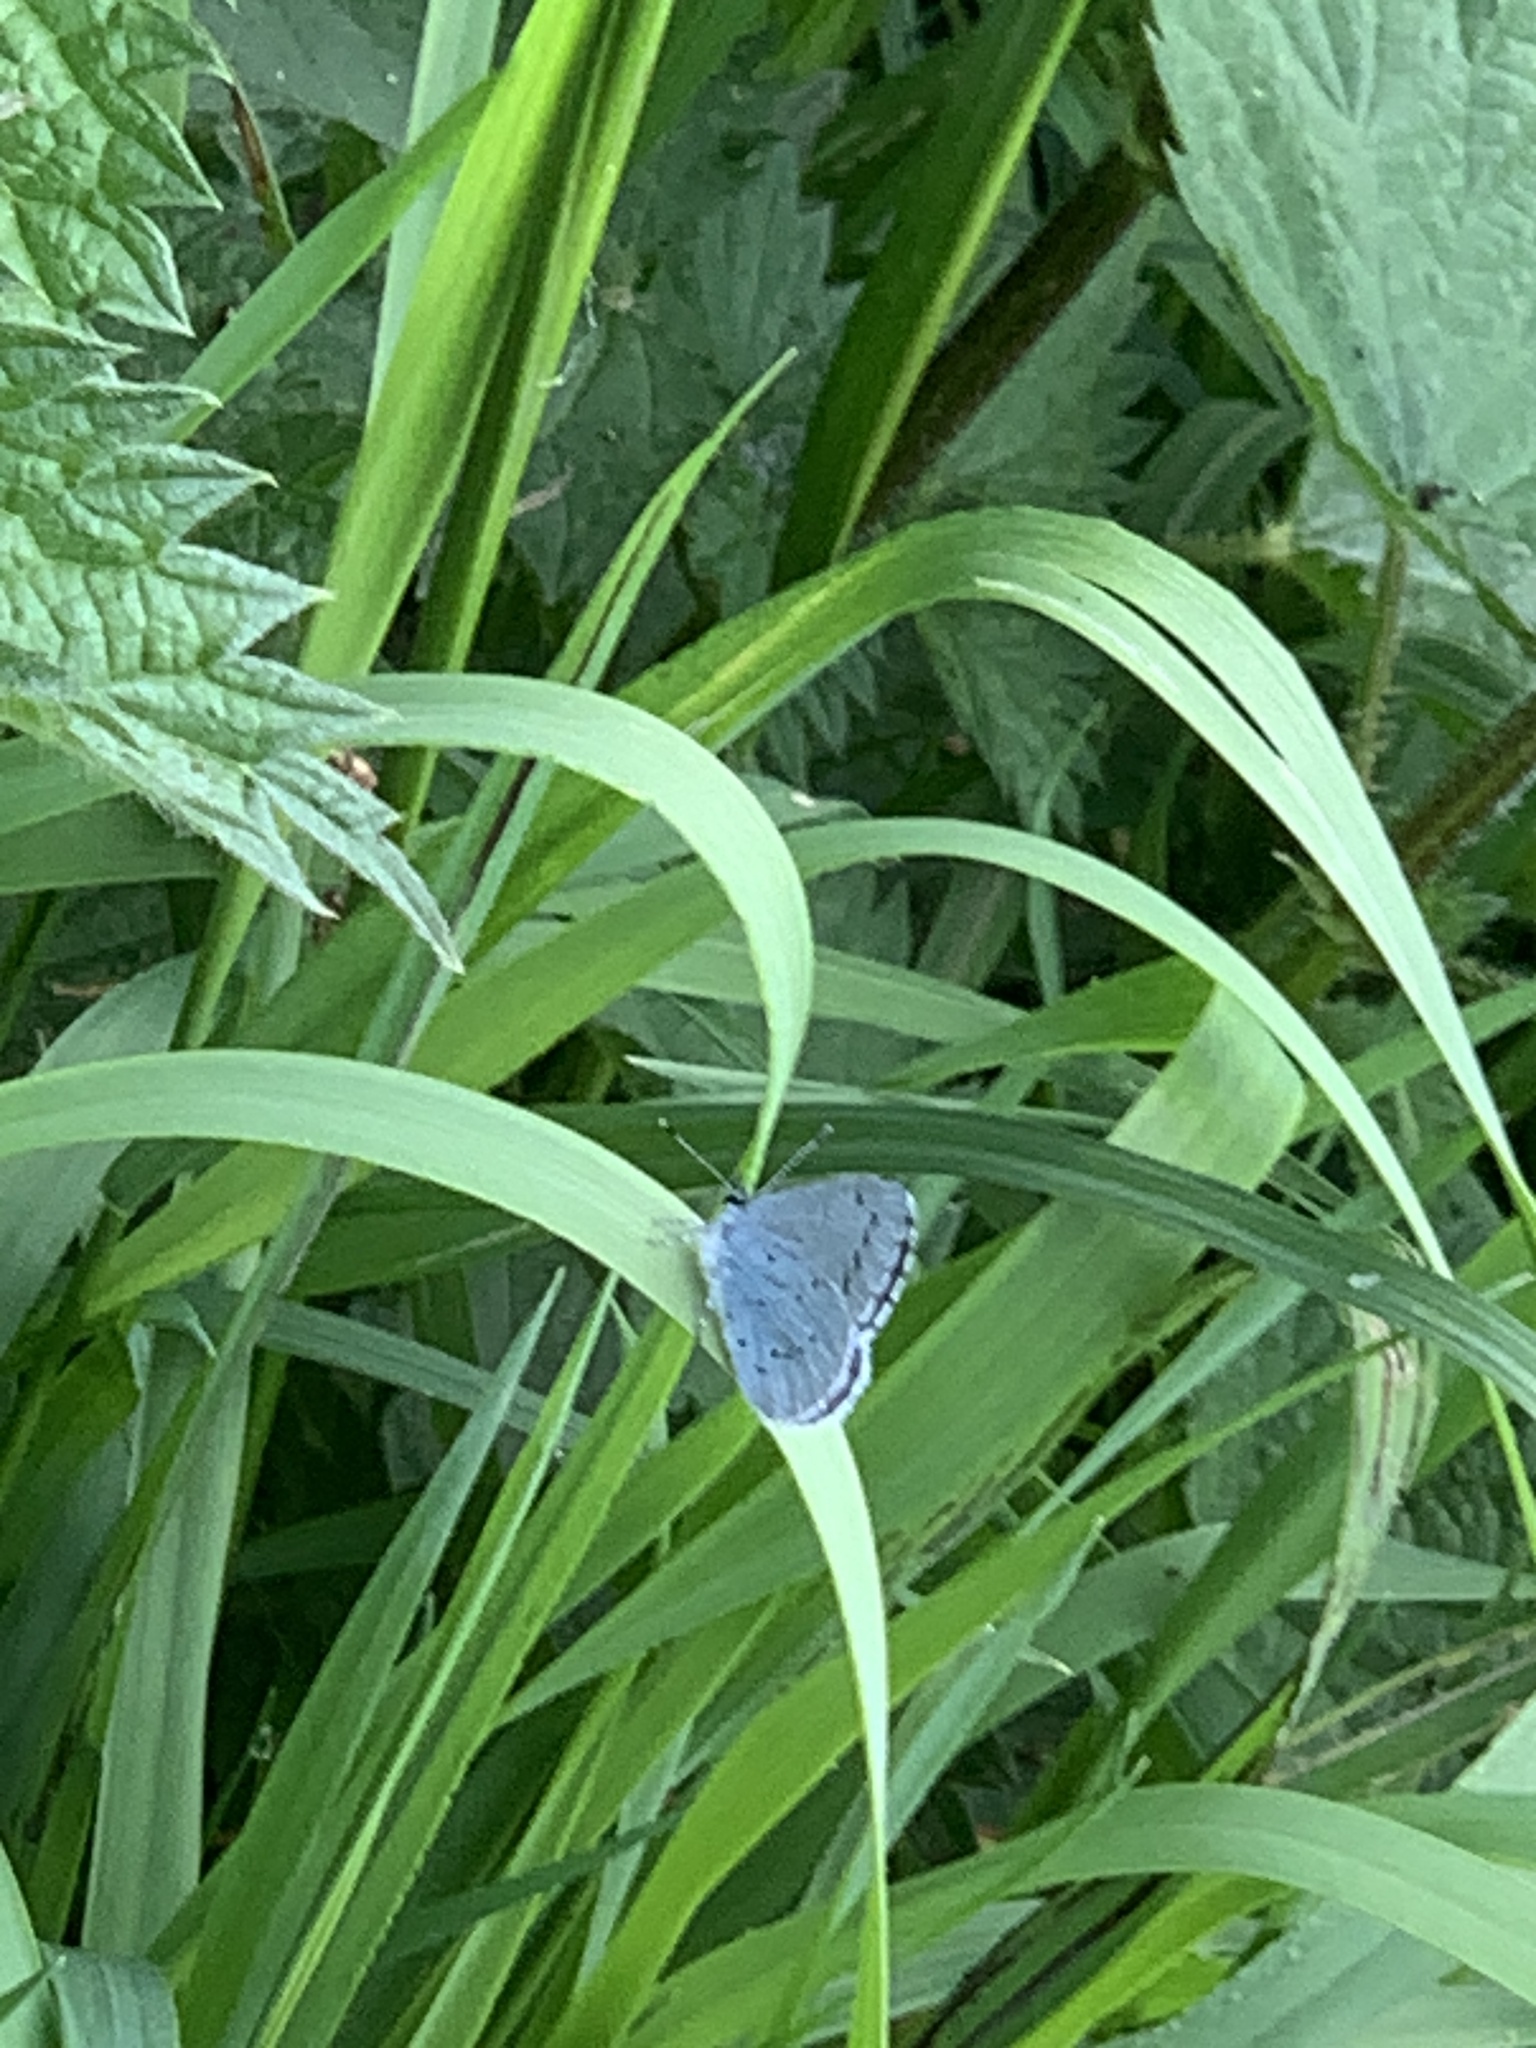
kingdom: Animalia
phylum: Arthropoda
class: Insecta
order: Lepidoptera
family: Lycaenidae
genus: Celastrina
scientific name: Celastrina argiolus
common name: Holly blue
